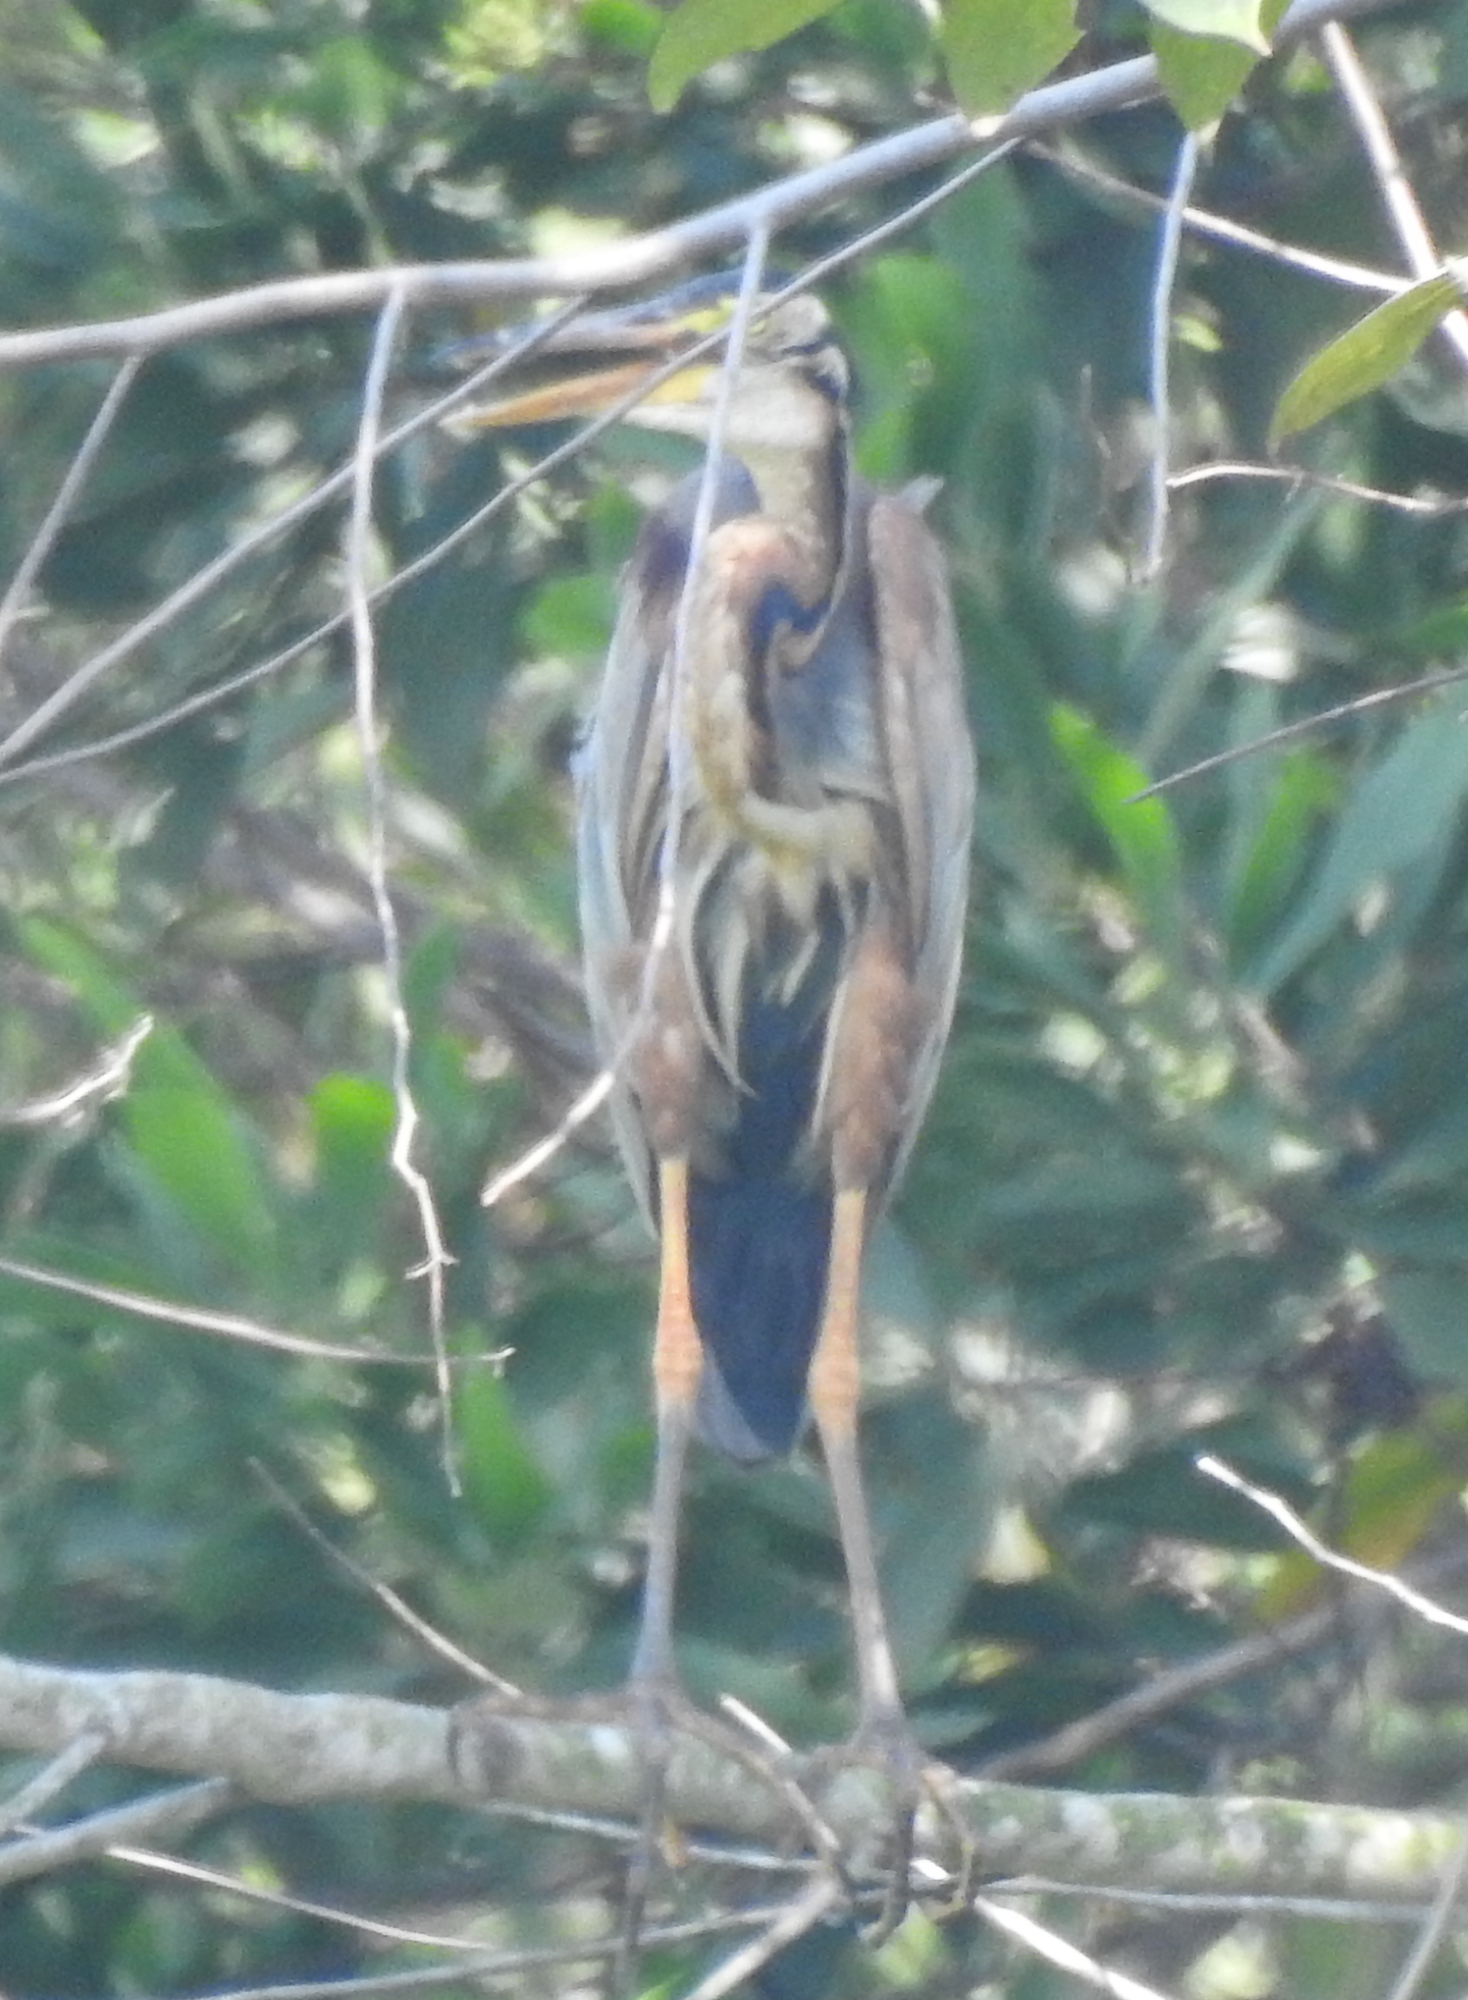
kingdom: Animalia
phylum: Chordata
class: Aves
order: Pelecaniformes
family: Ardeidae
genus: Ardea
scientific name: Ardea purpurea
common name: Purple heron
